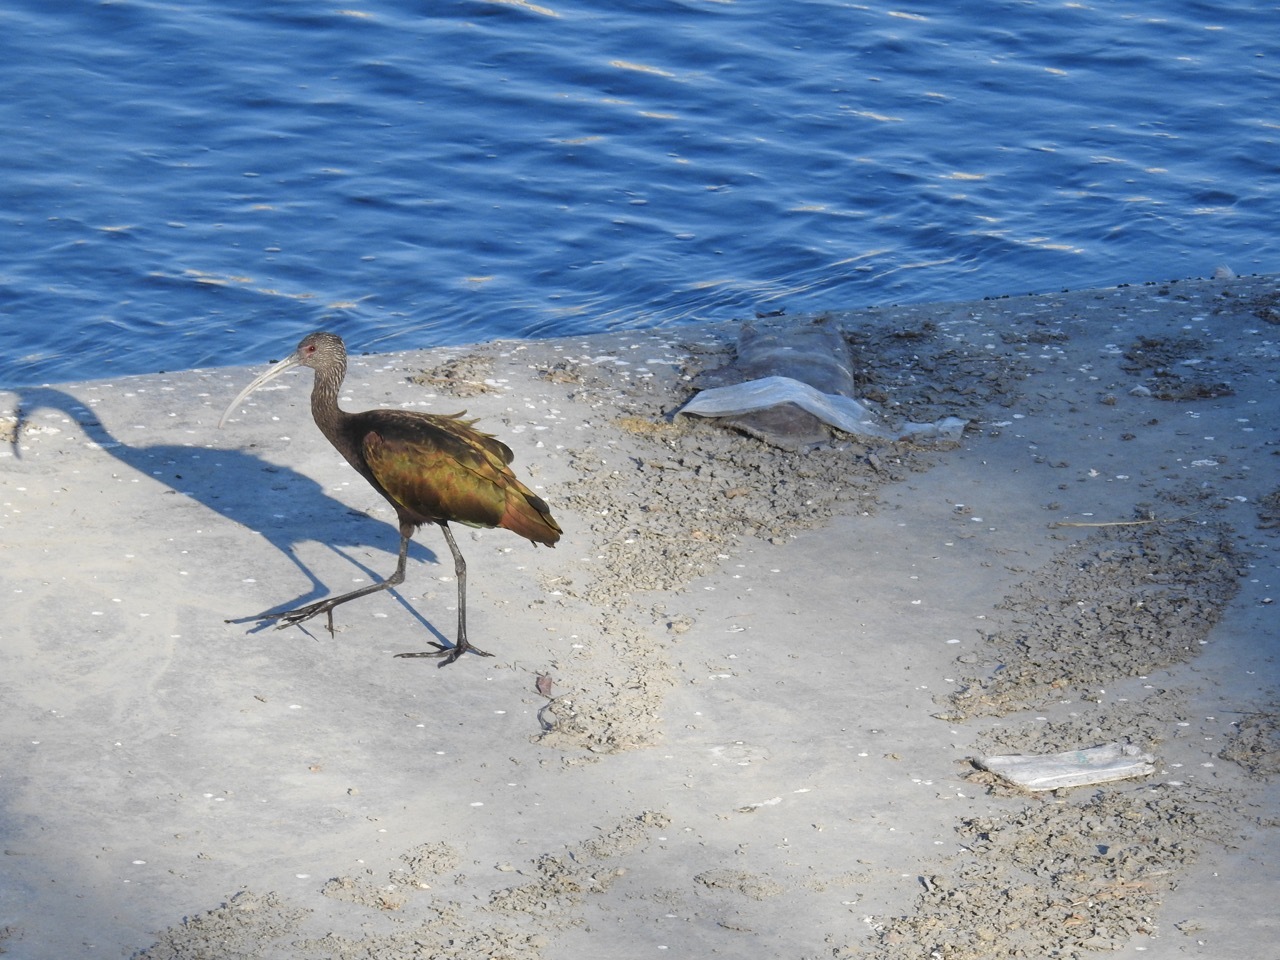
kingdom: Animalia
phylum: Chordata
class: Aves
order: Pelecaniformes
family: Threskiornithidae
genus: Plegadis
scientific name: Plegadis chihi
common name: White-faced ibis
